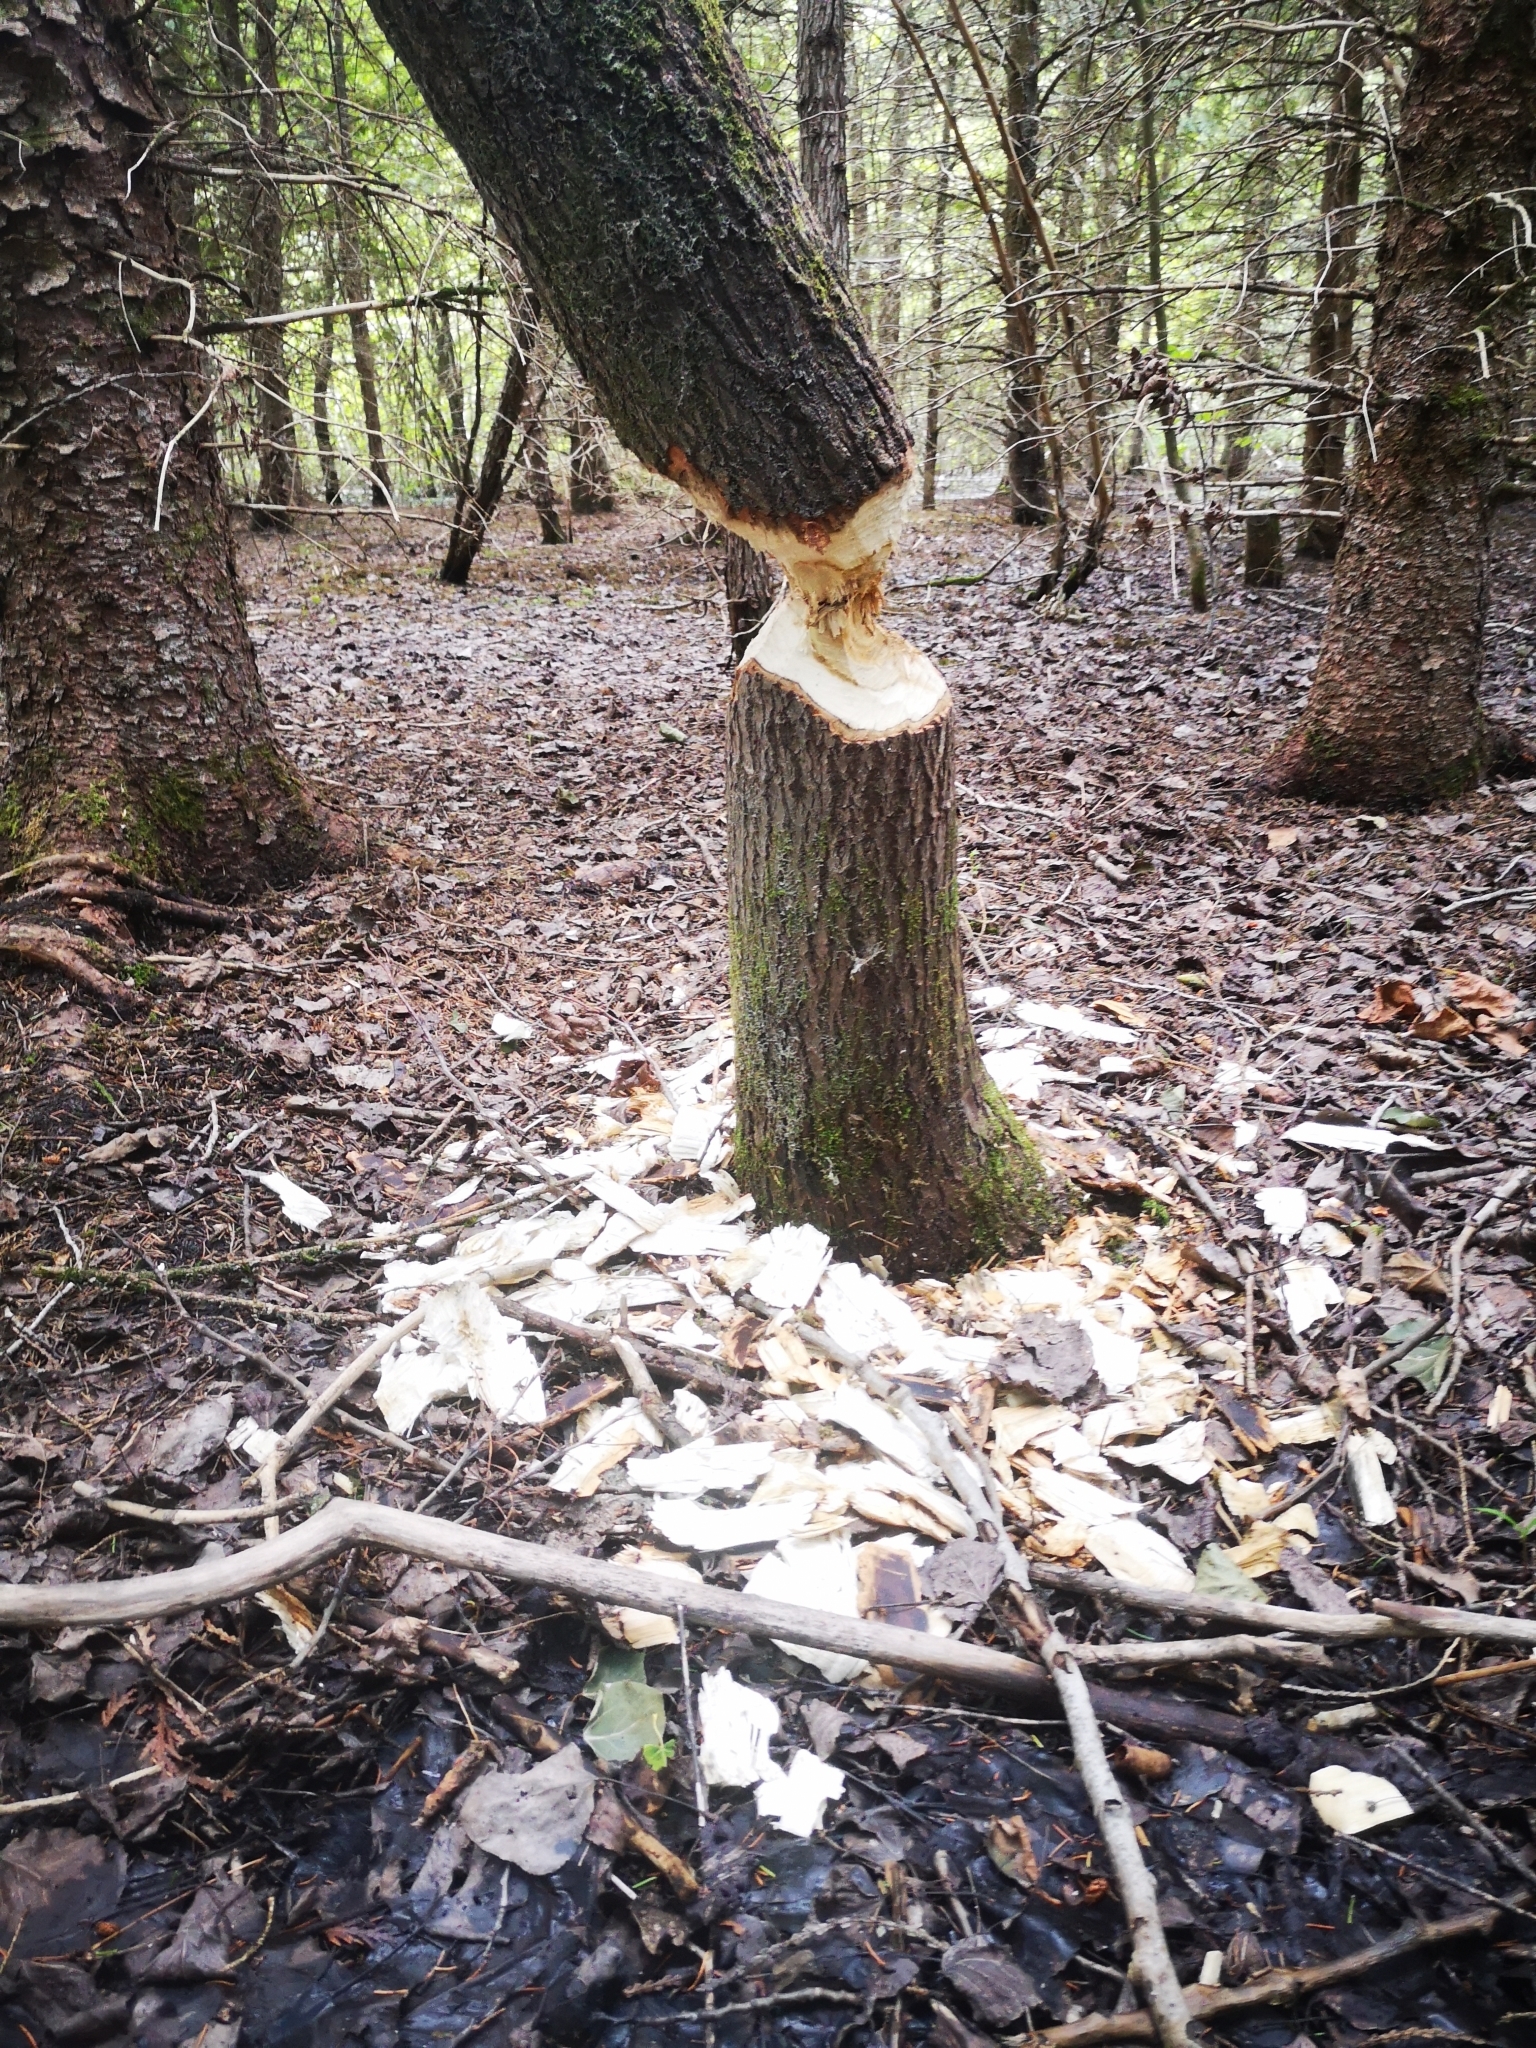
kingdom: Animalia
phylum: Chordata
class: Mammalia
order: Rodentia
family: Castoridae
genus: Castor
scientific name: Castor canadensis
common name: American beaver
